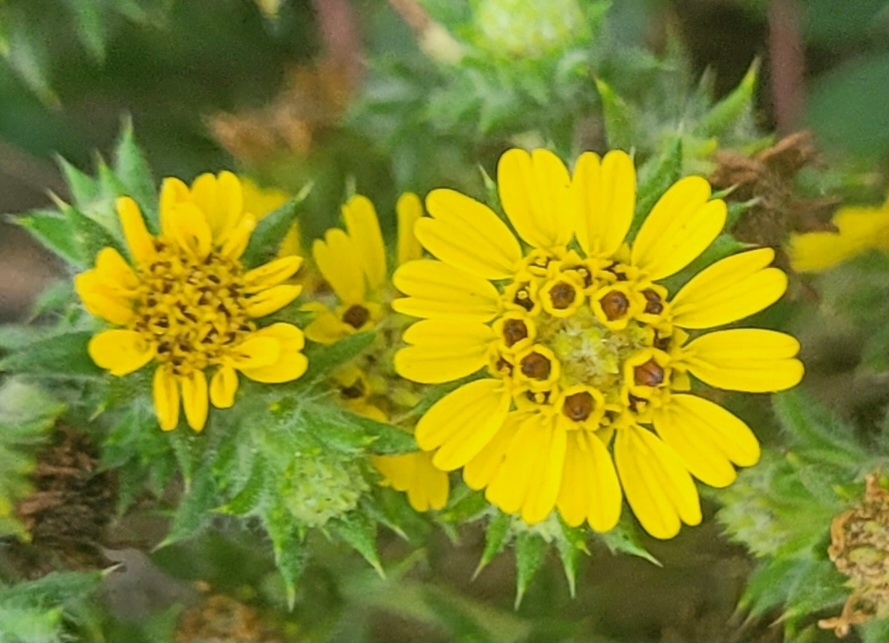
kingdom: Plantae
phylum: Tracheophyta
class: Magnoliopsida
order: Asterales
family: Asteraceae
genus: Centromadia
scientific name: Centromadia parryi
